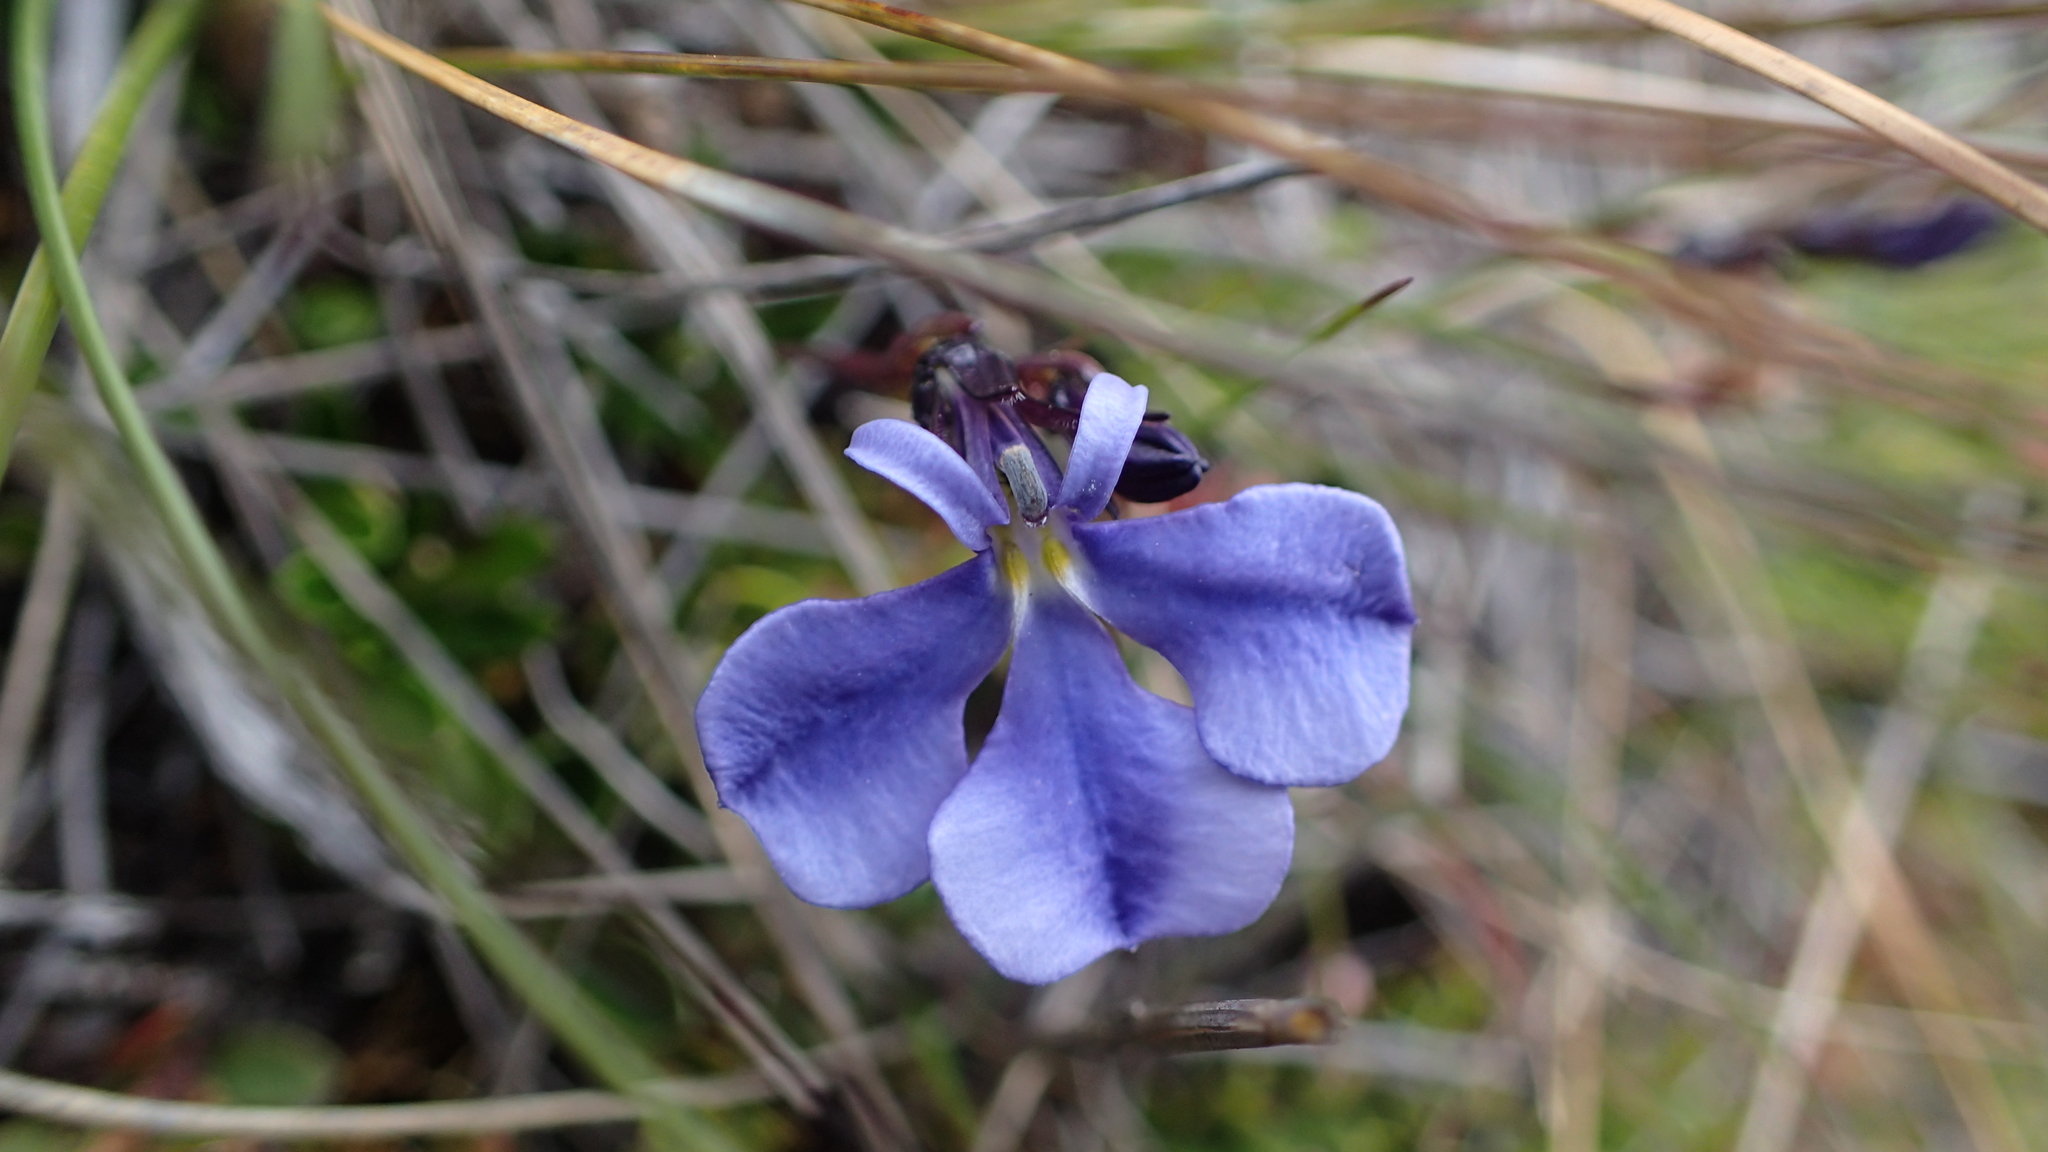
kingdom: Plantae
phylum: Tracheophyta
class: Magnoliopsida
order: Asterales
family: Campanulaceae
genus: Lobelia
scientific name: Lobelia tenera
